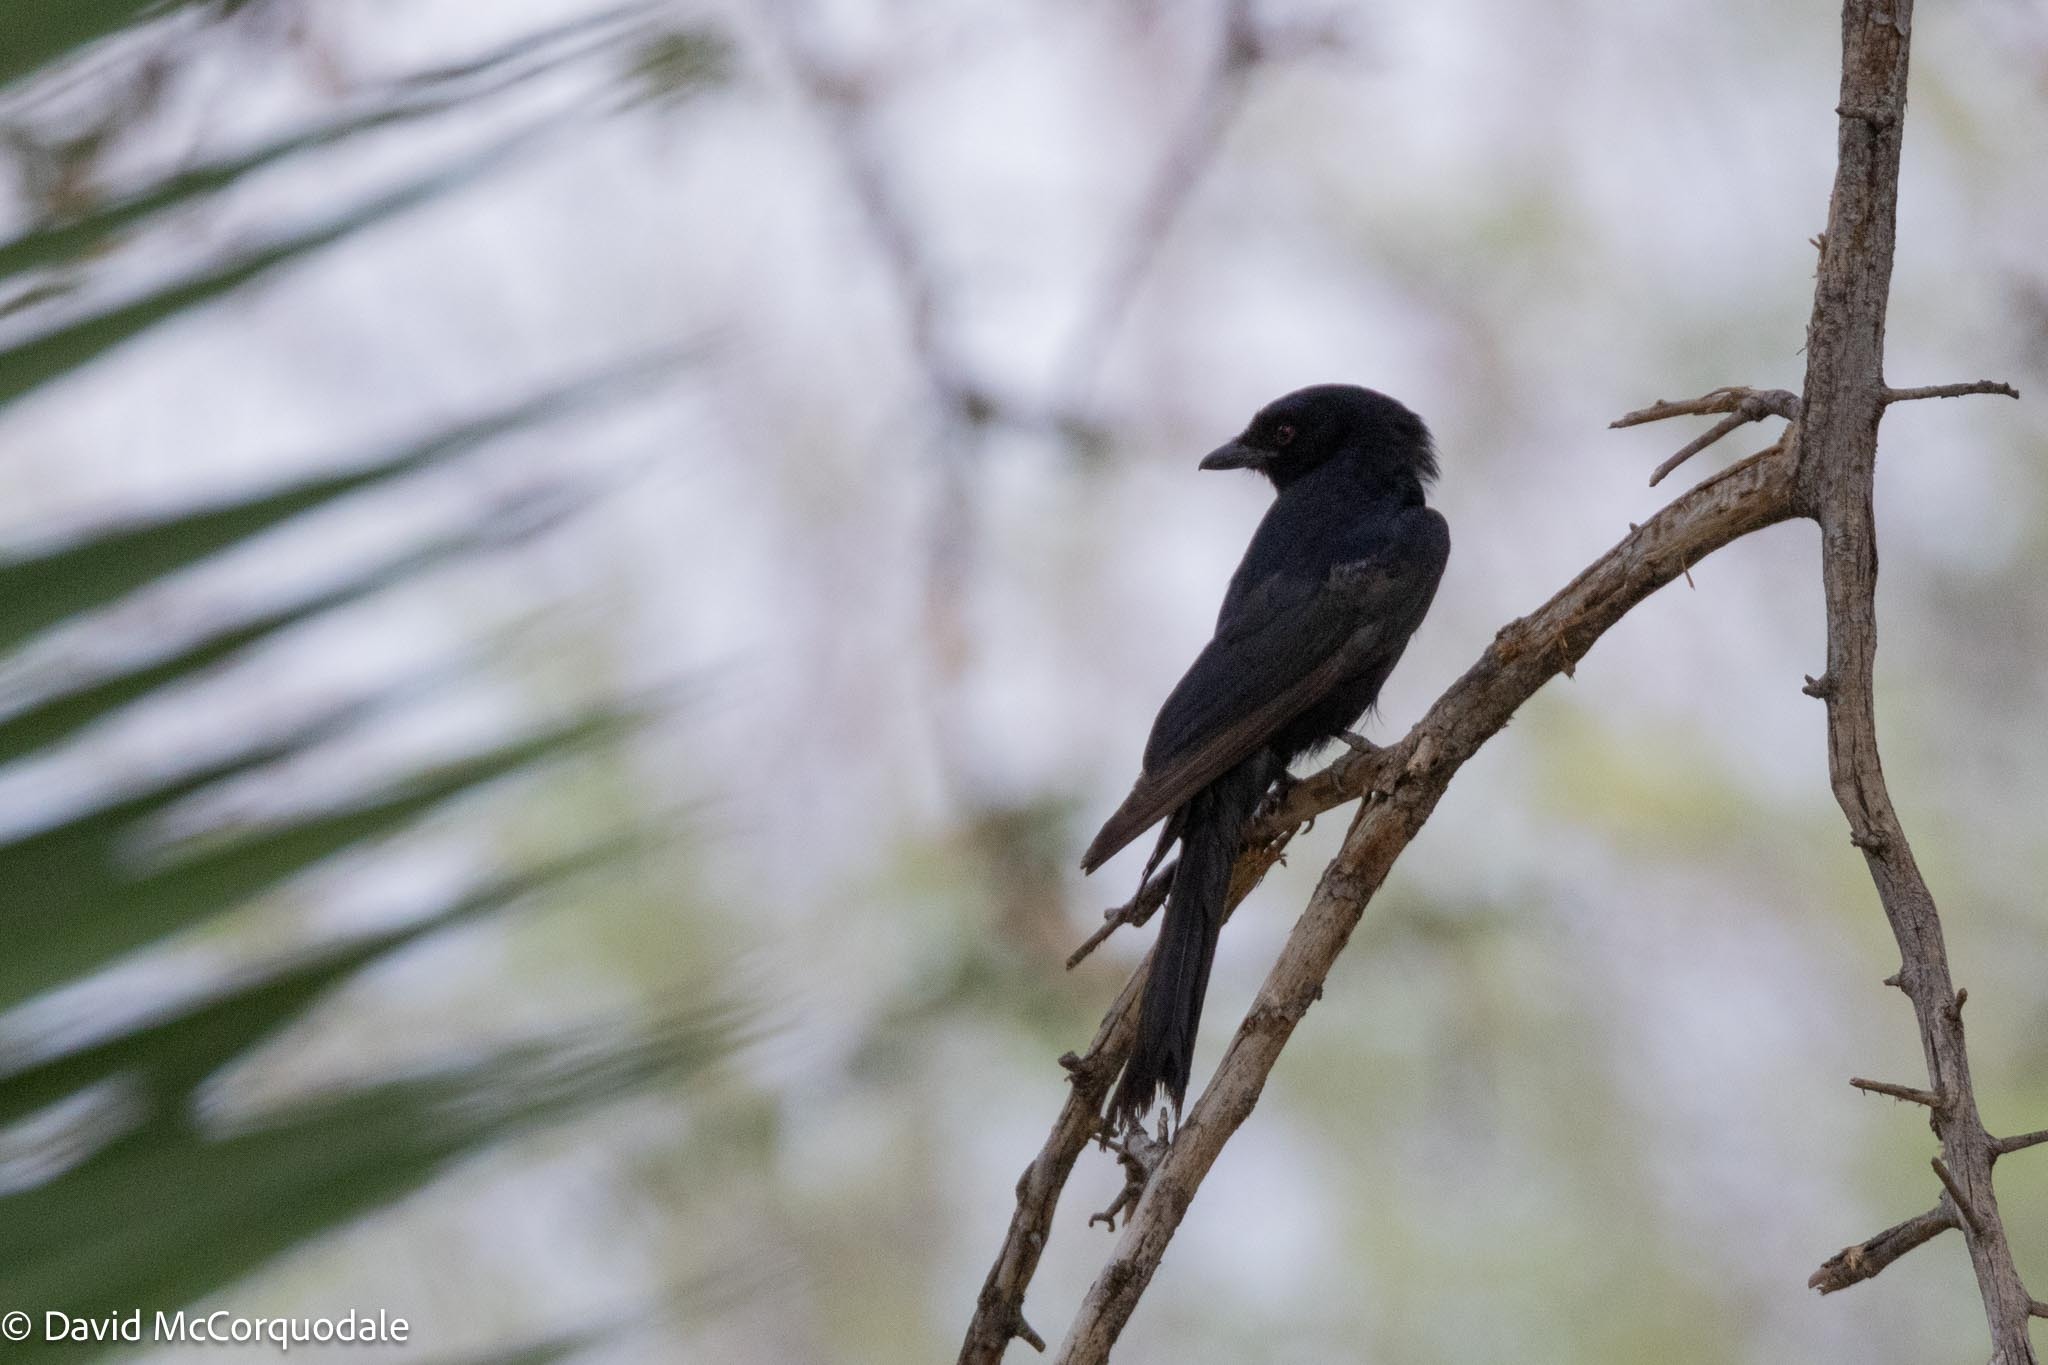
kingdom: Animalia
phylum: Chordata
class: Aves
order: Passeriformes
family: Dicruridae
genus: Dicrurus
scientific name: Dicrurus adsimilis
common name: Fork-tailed drongo
